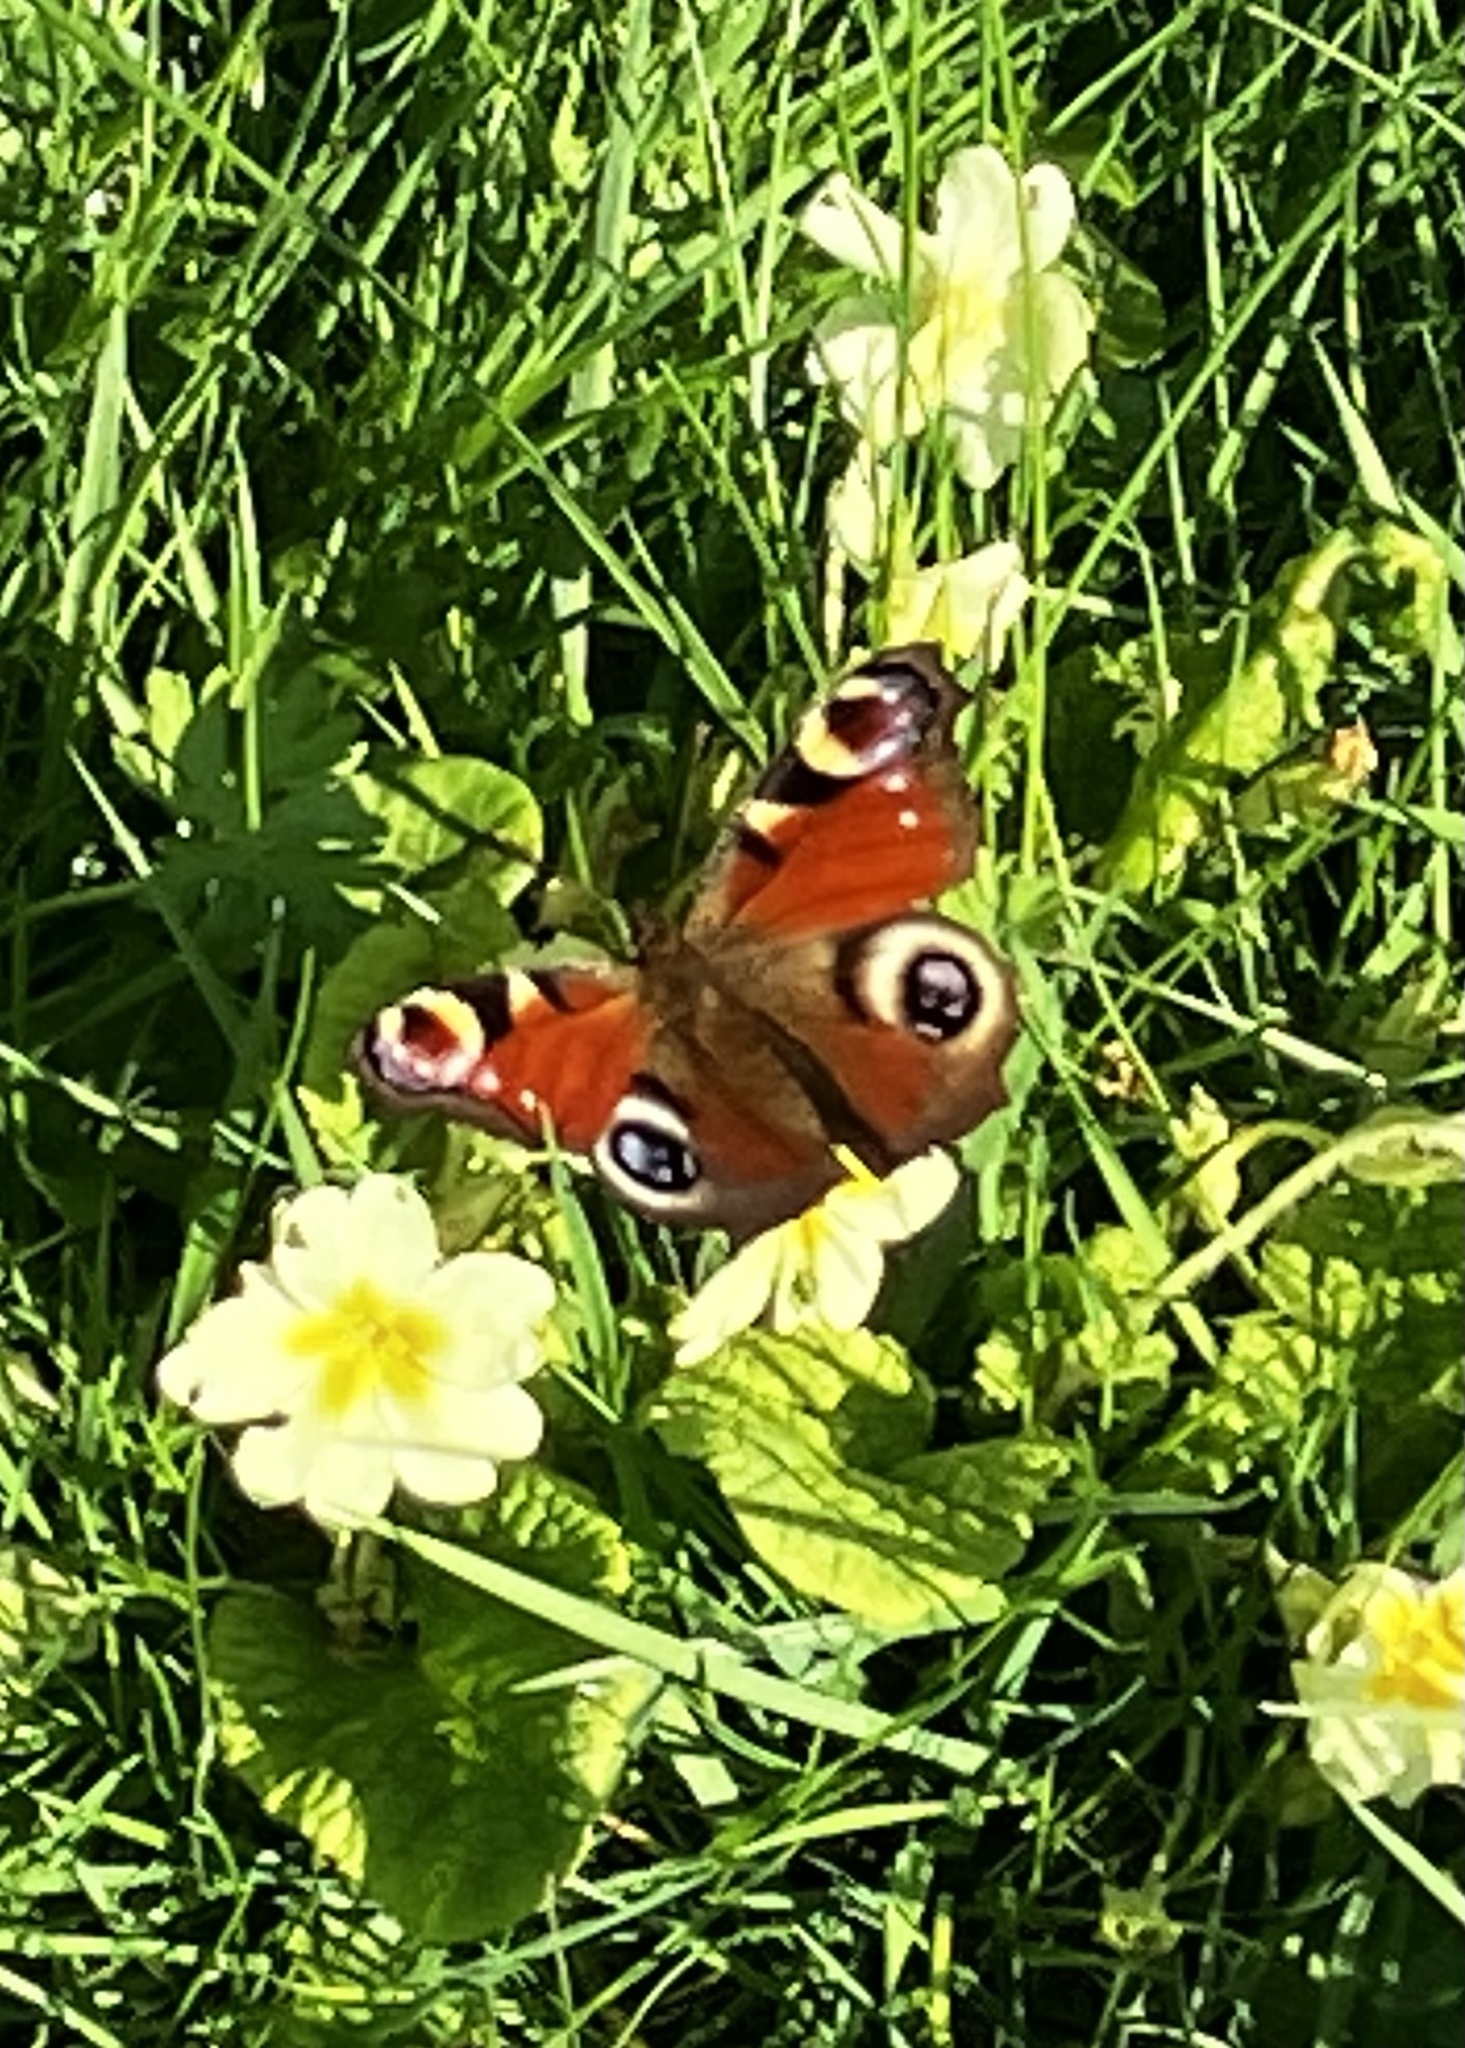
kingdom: Animalia
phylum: Arthropoda
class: Insecta
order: Lepidoptera
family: Nymphalidae
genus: Aglais
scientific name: Aglais io
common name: Peacock
